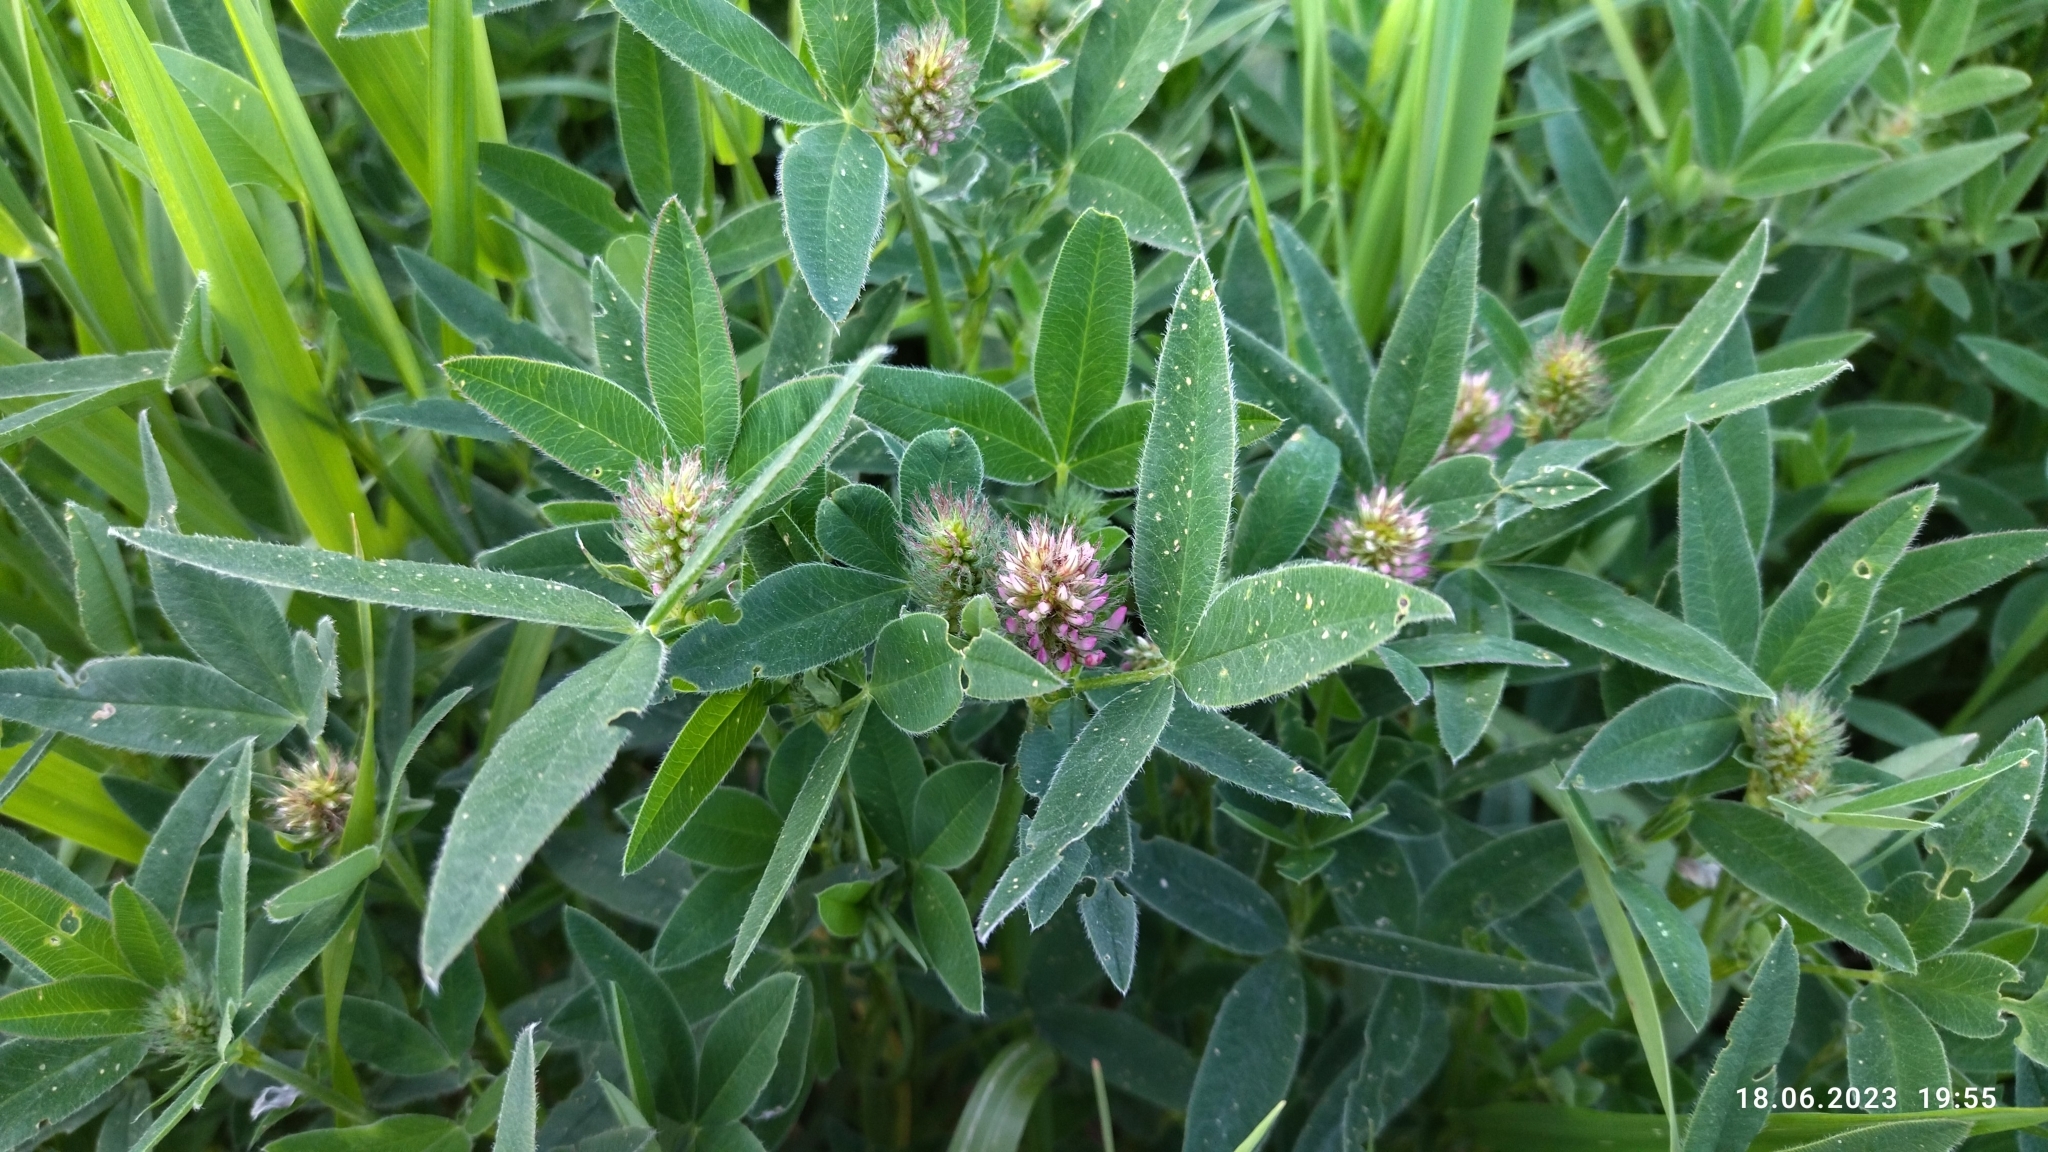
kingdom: Plantae
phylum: Tracheophyta
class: Magnoliopsida
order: Fabales
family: Fabaceae
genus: Trifolium
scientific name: Trifolium medium
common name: Zigzag clover
